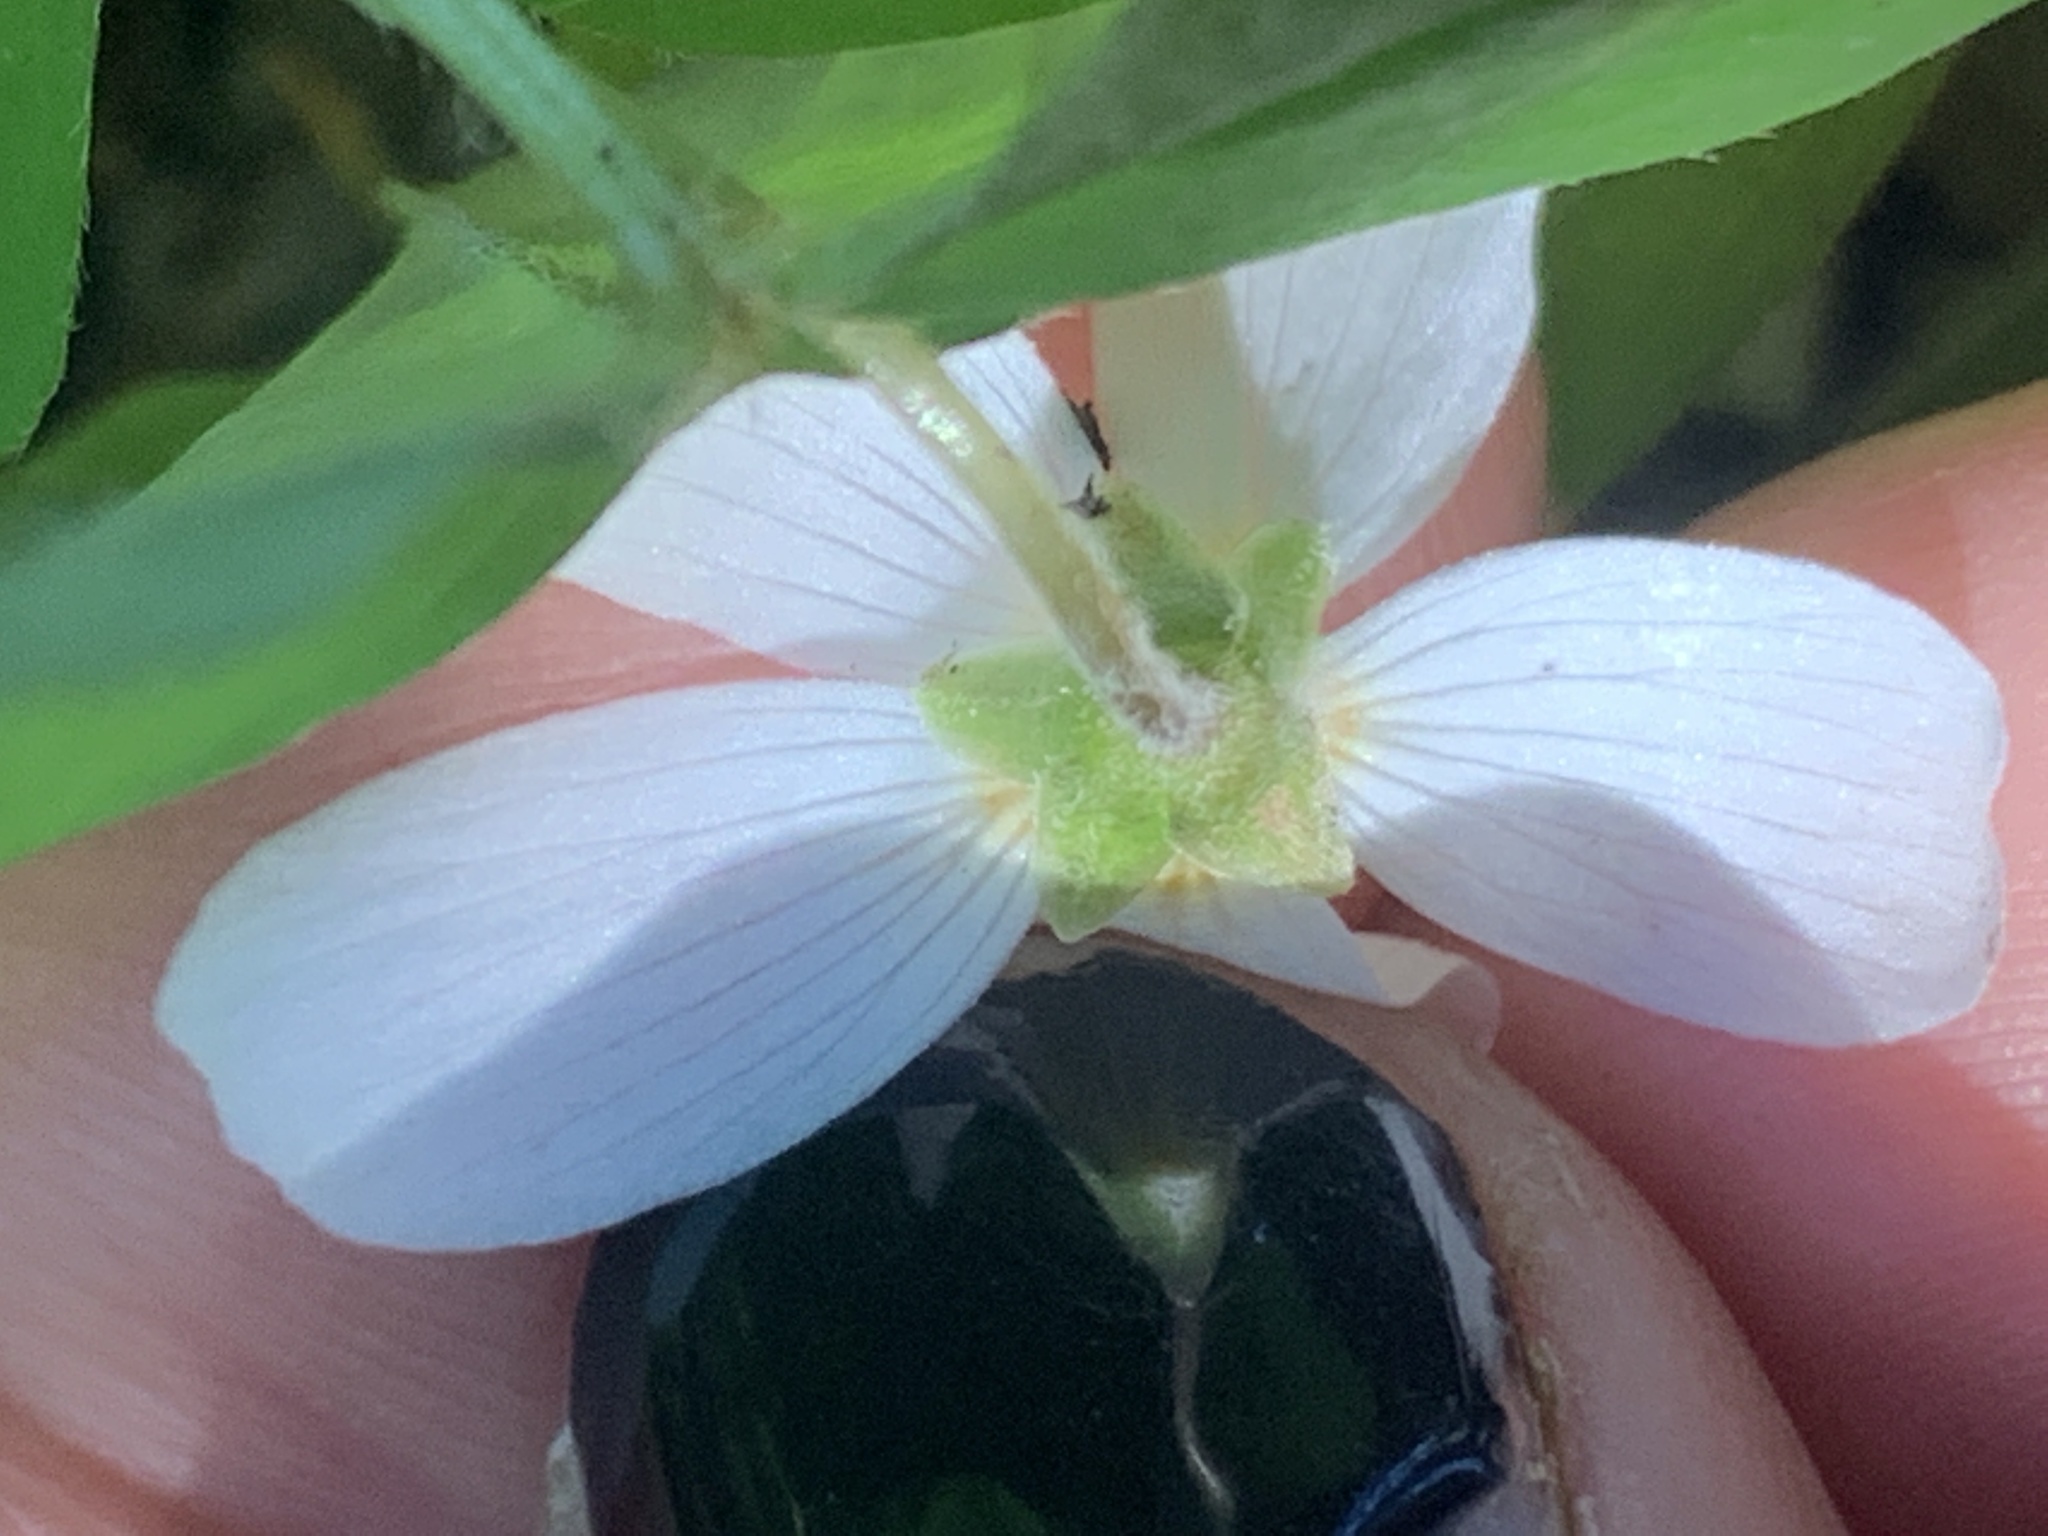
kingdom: Plantae
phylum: Tracheophyta
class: Magnoliopsida
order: Oxalidales
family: Oxalidaceae
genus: Oxalis
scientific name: Oxalis oregana
